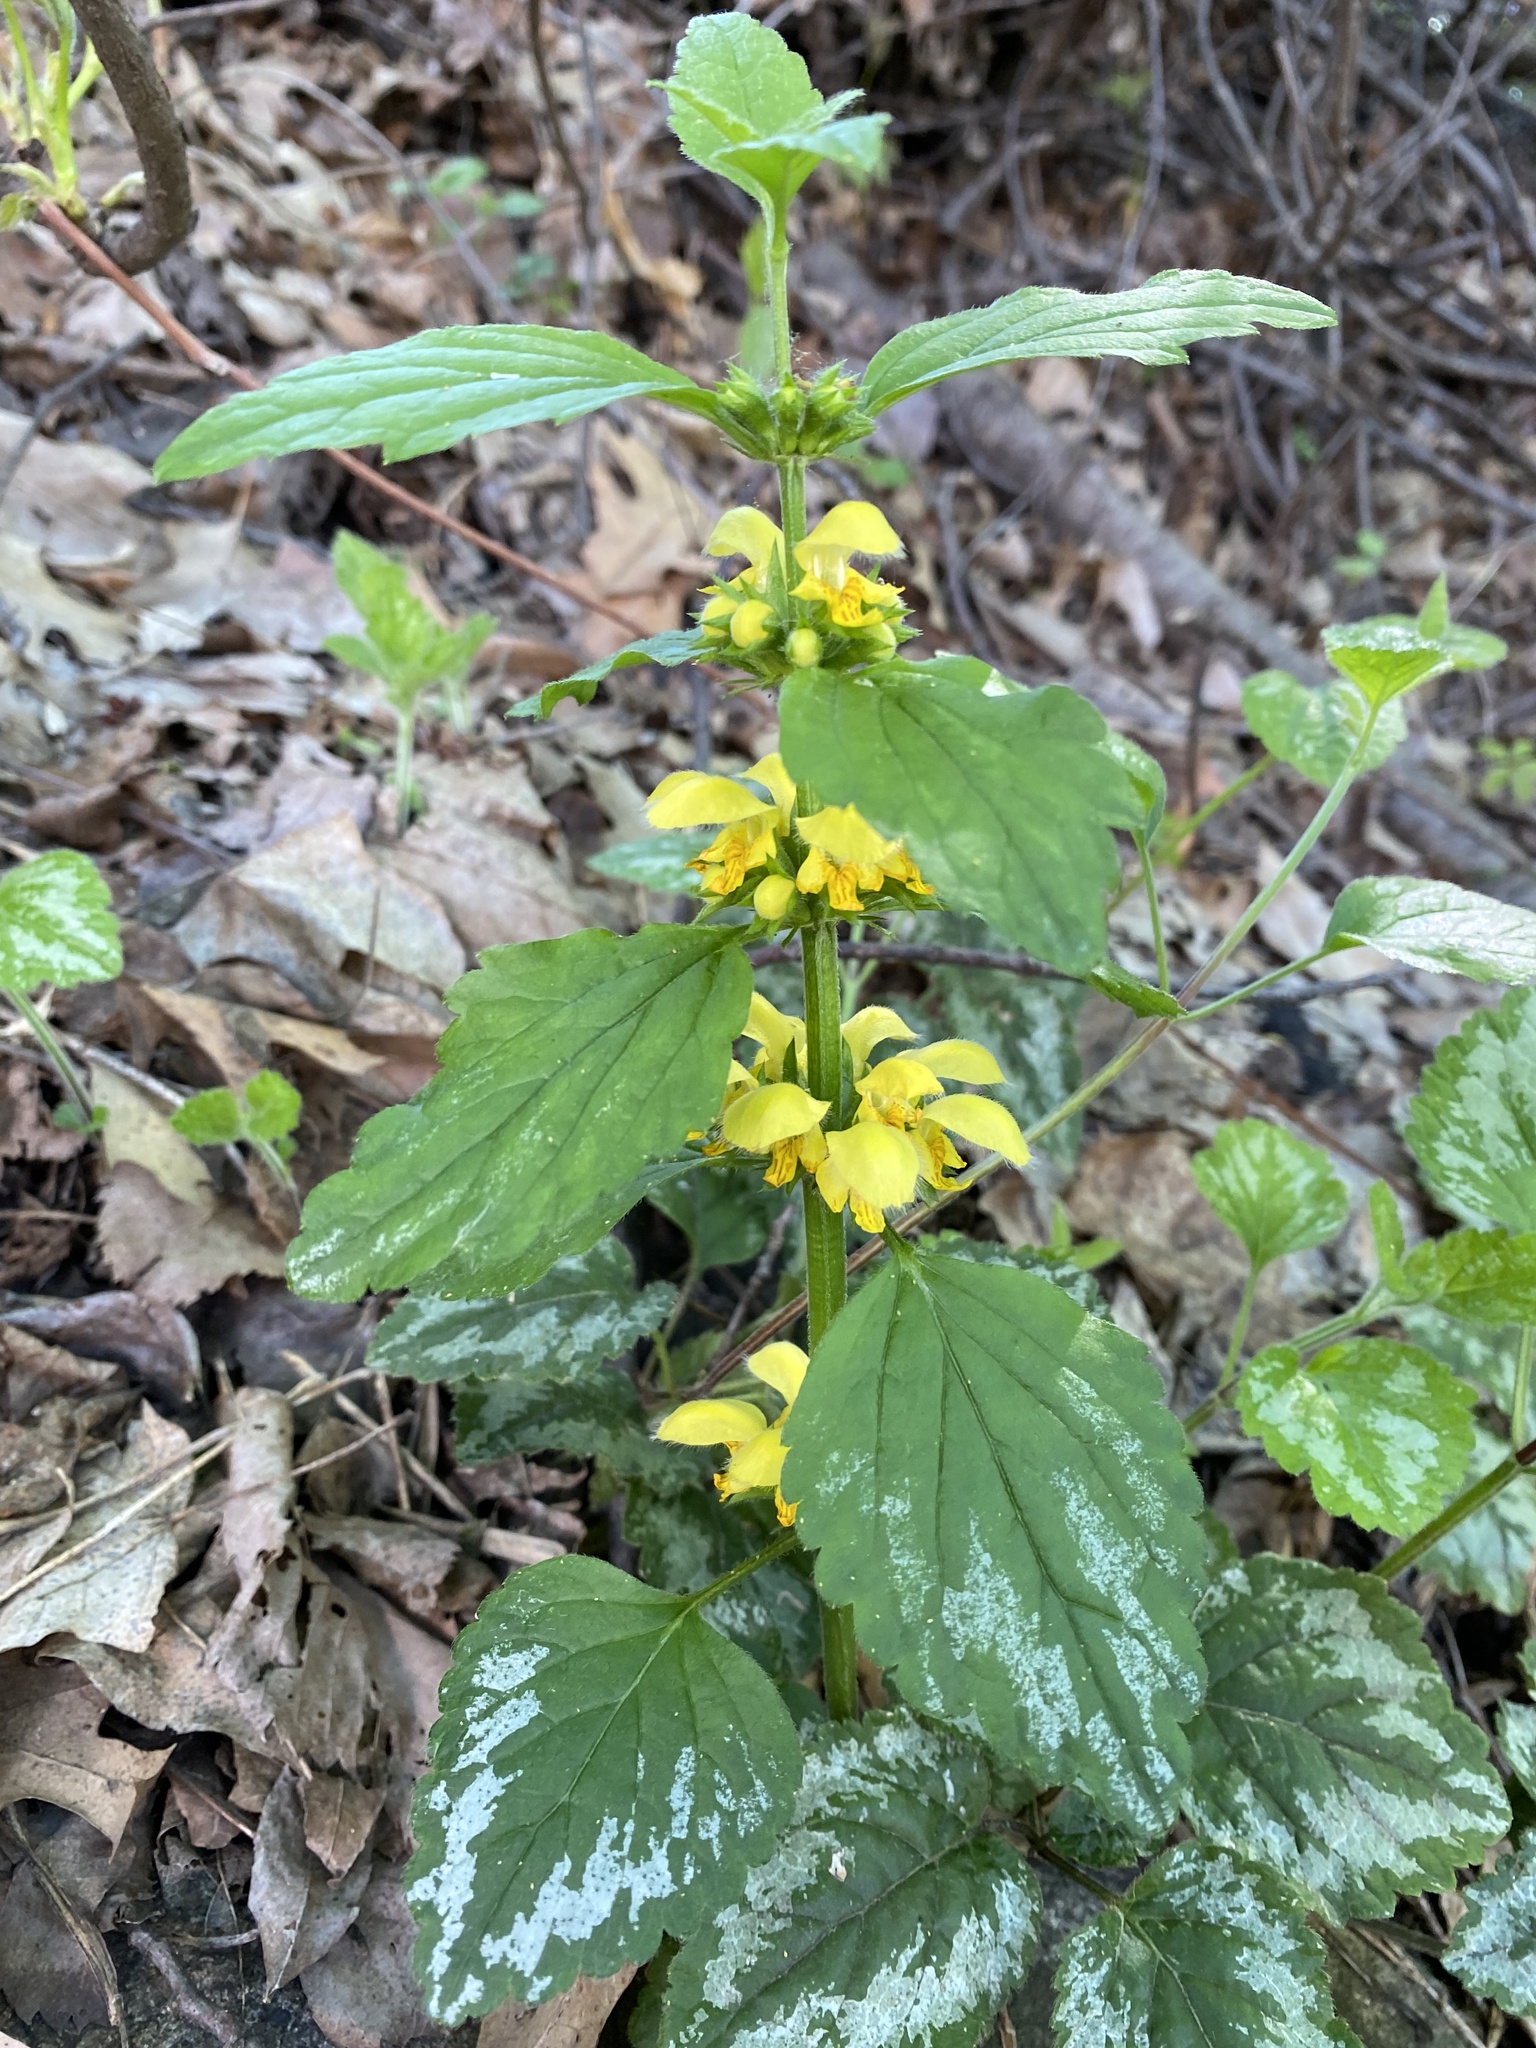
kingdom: Plantae
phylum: Tracheophyta
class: Magnoliopsida
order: Lamiales
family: Lamiaceae
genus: Lamium
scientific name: Lamium galeobdolon
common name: Yellow archangel
